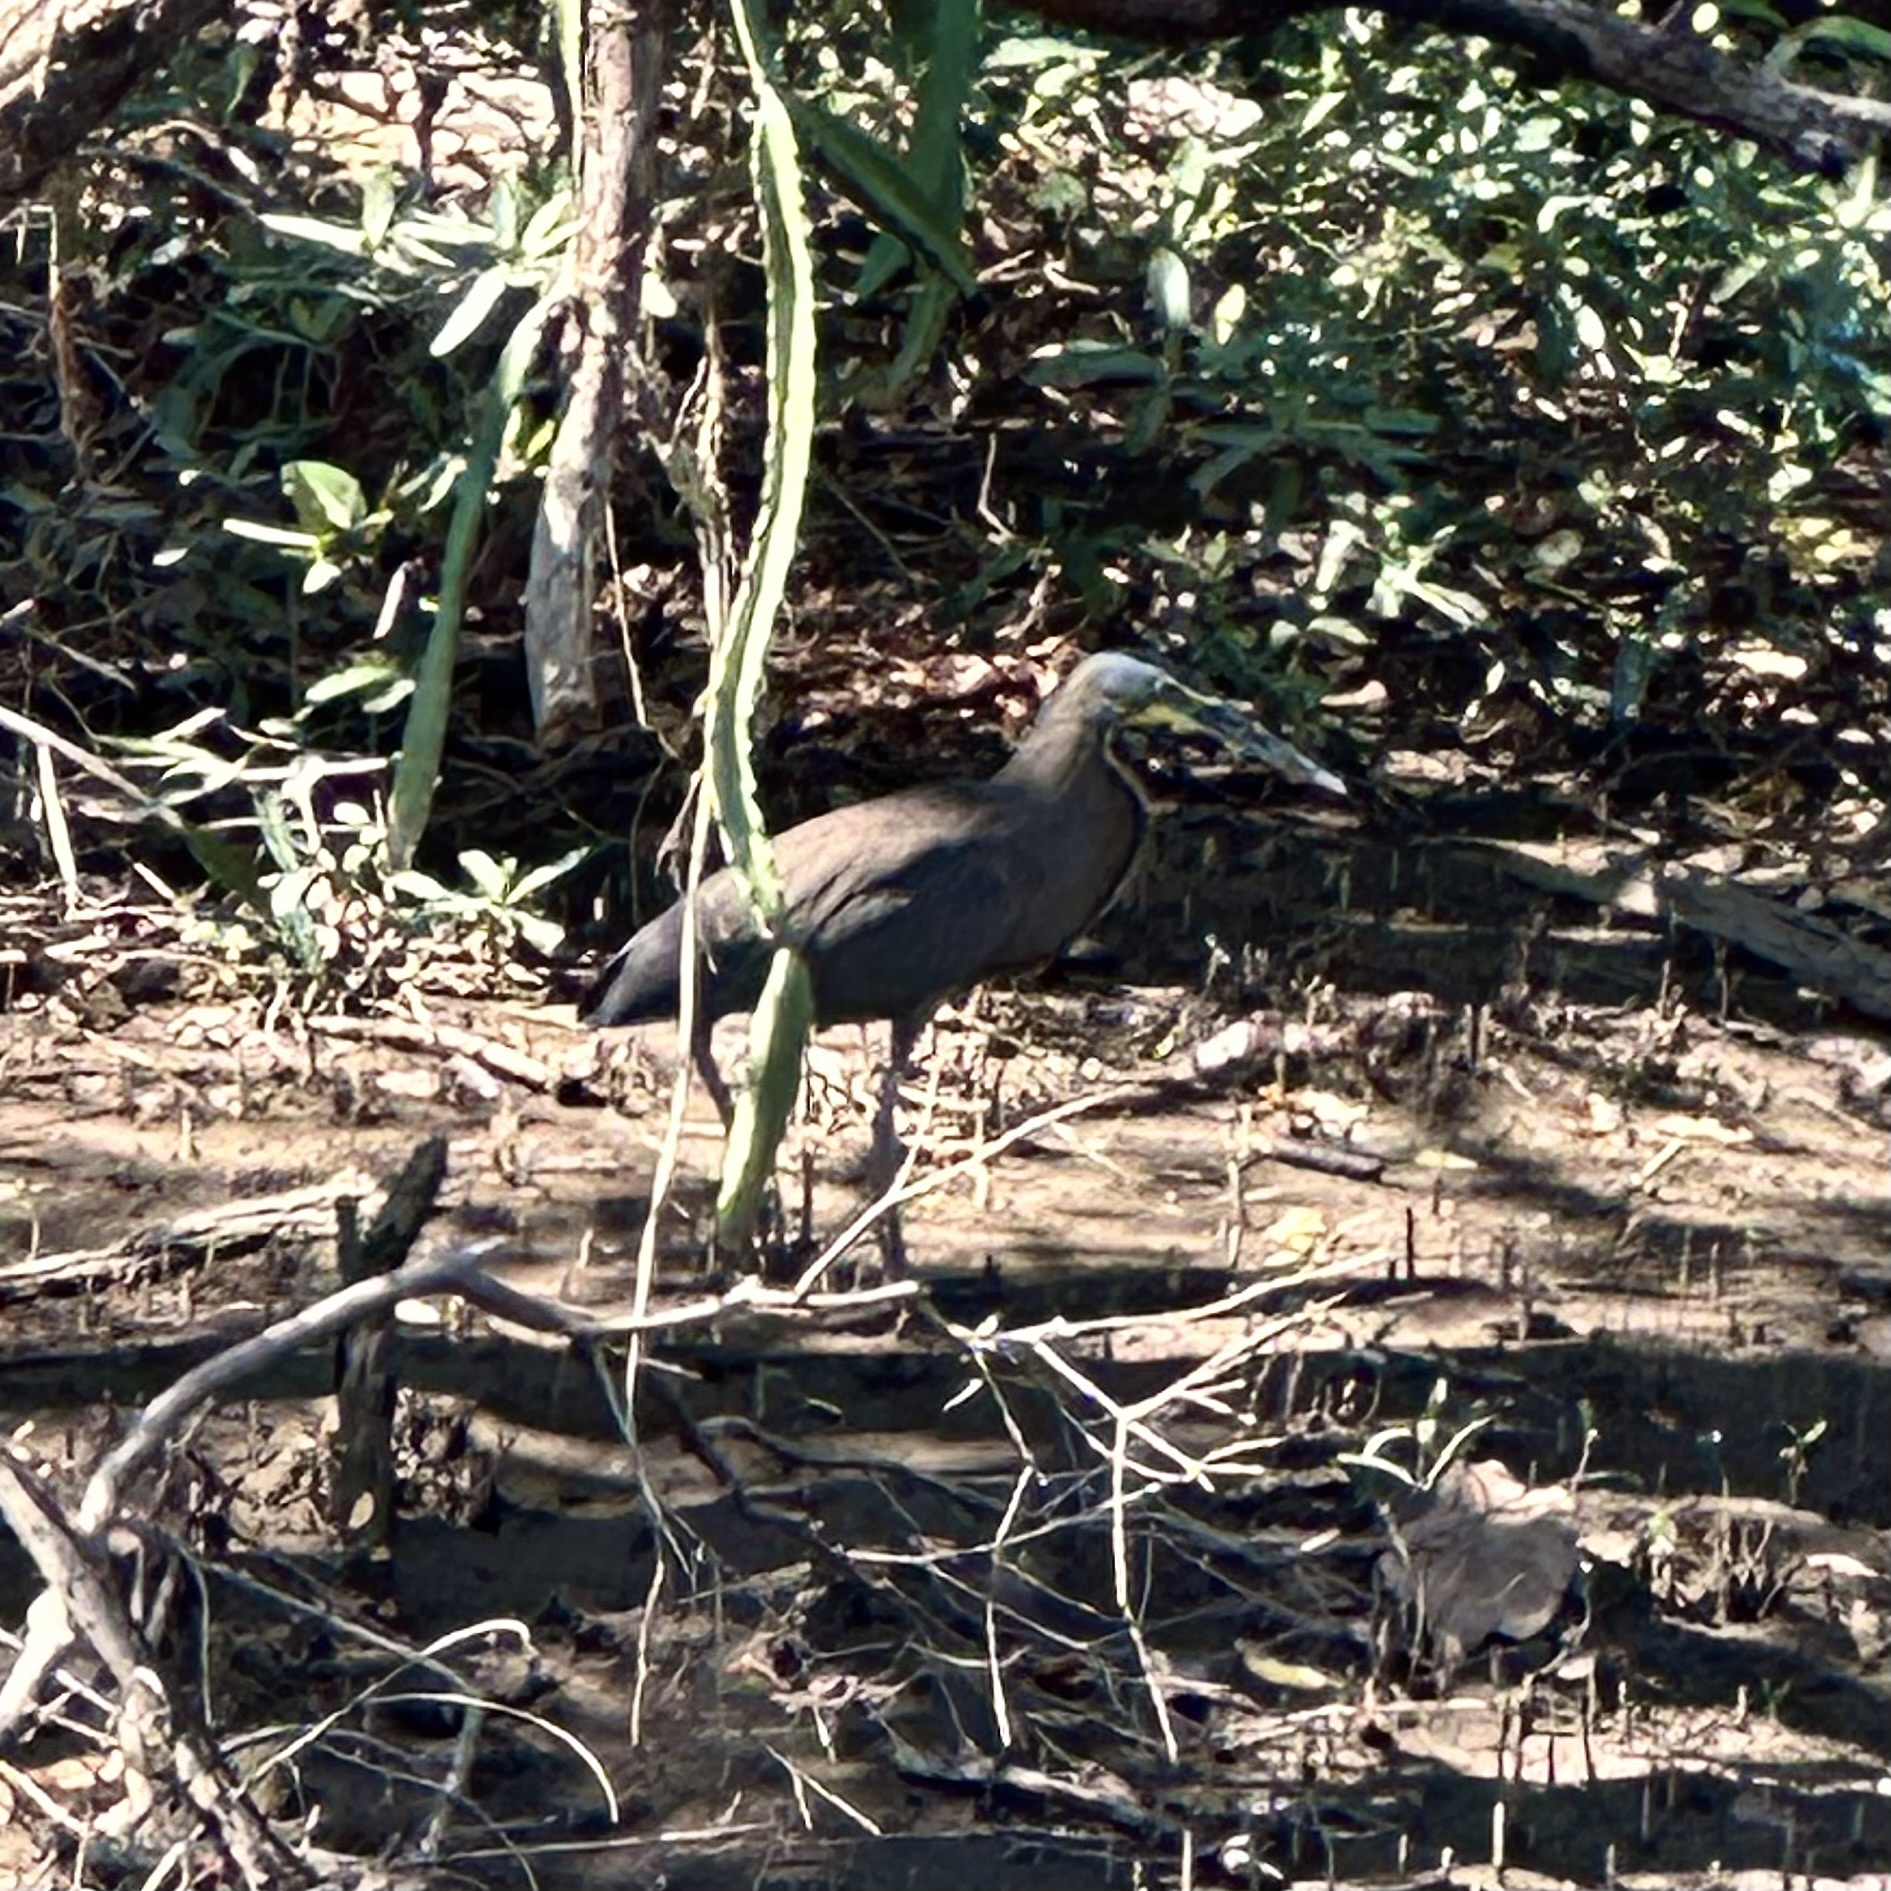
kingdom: Animalia
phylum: Chordata
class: Aves
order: Pelecaniformes
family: Ardeidae
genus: Tigrisoma
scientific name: Tigrisoma mexicanum
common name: Bare-throated tiger-heron
